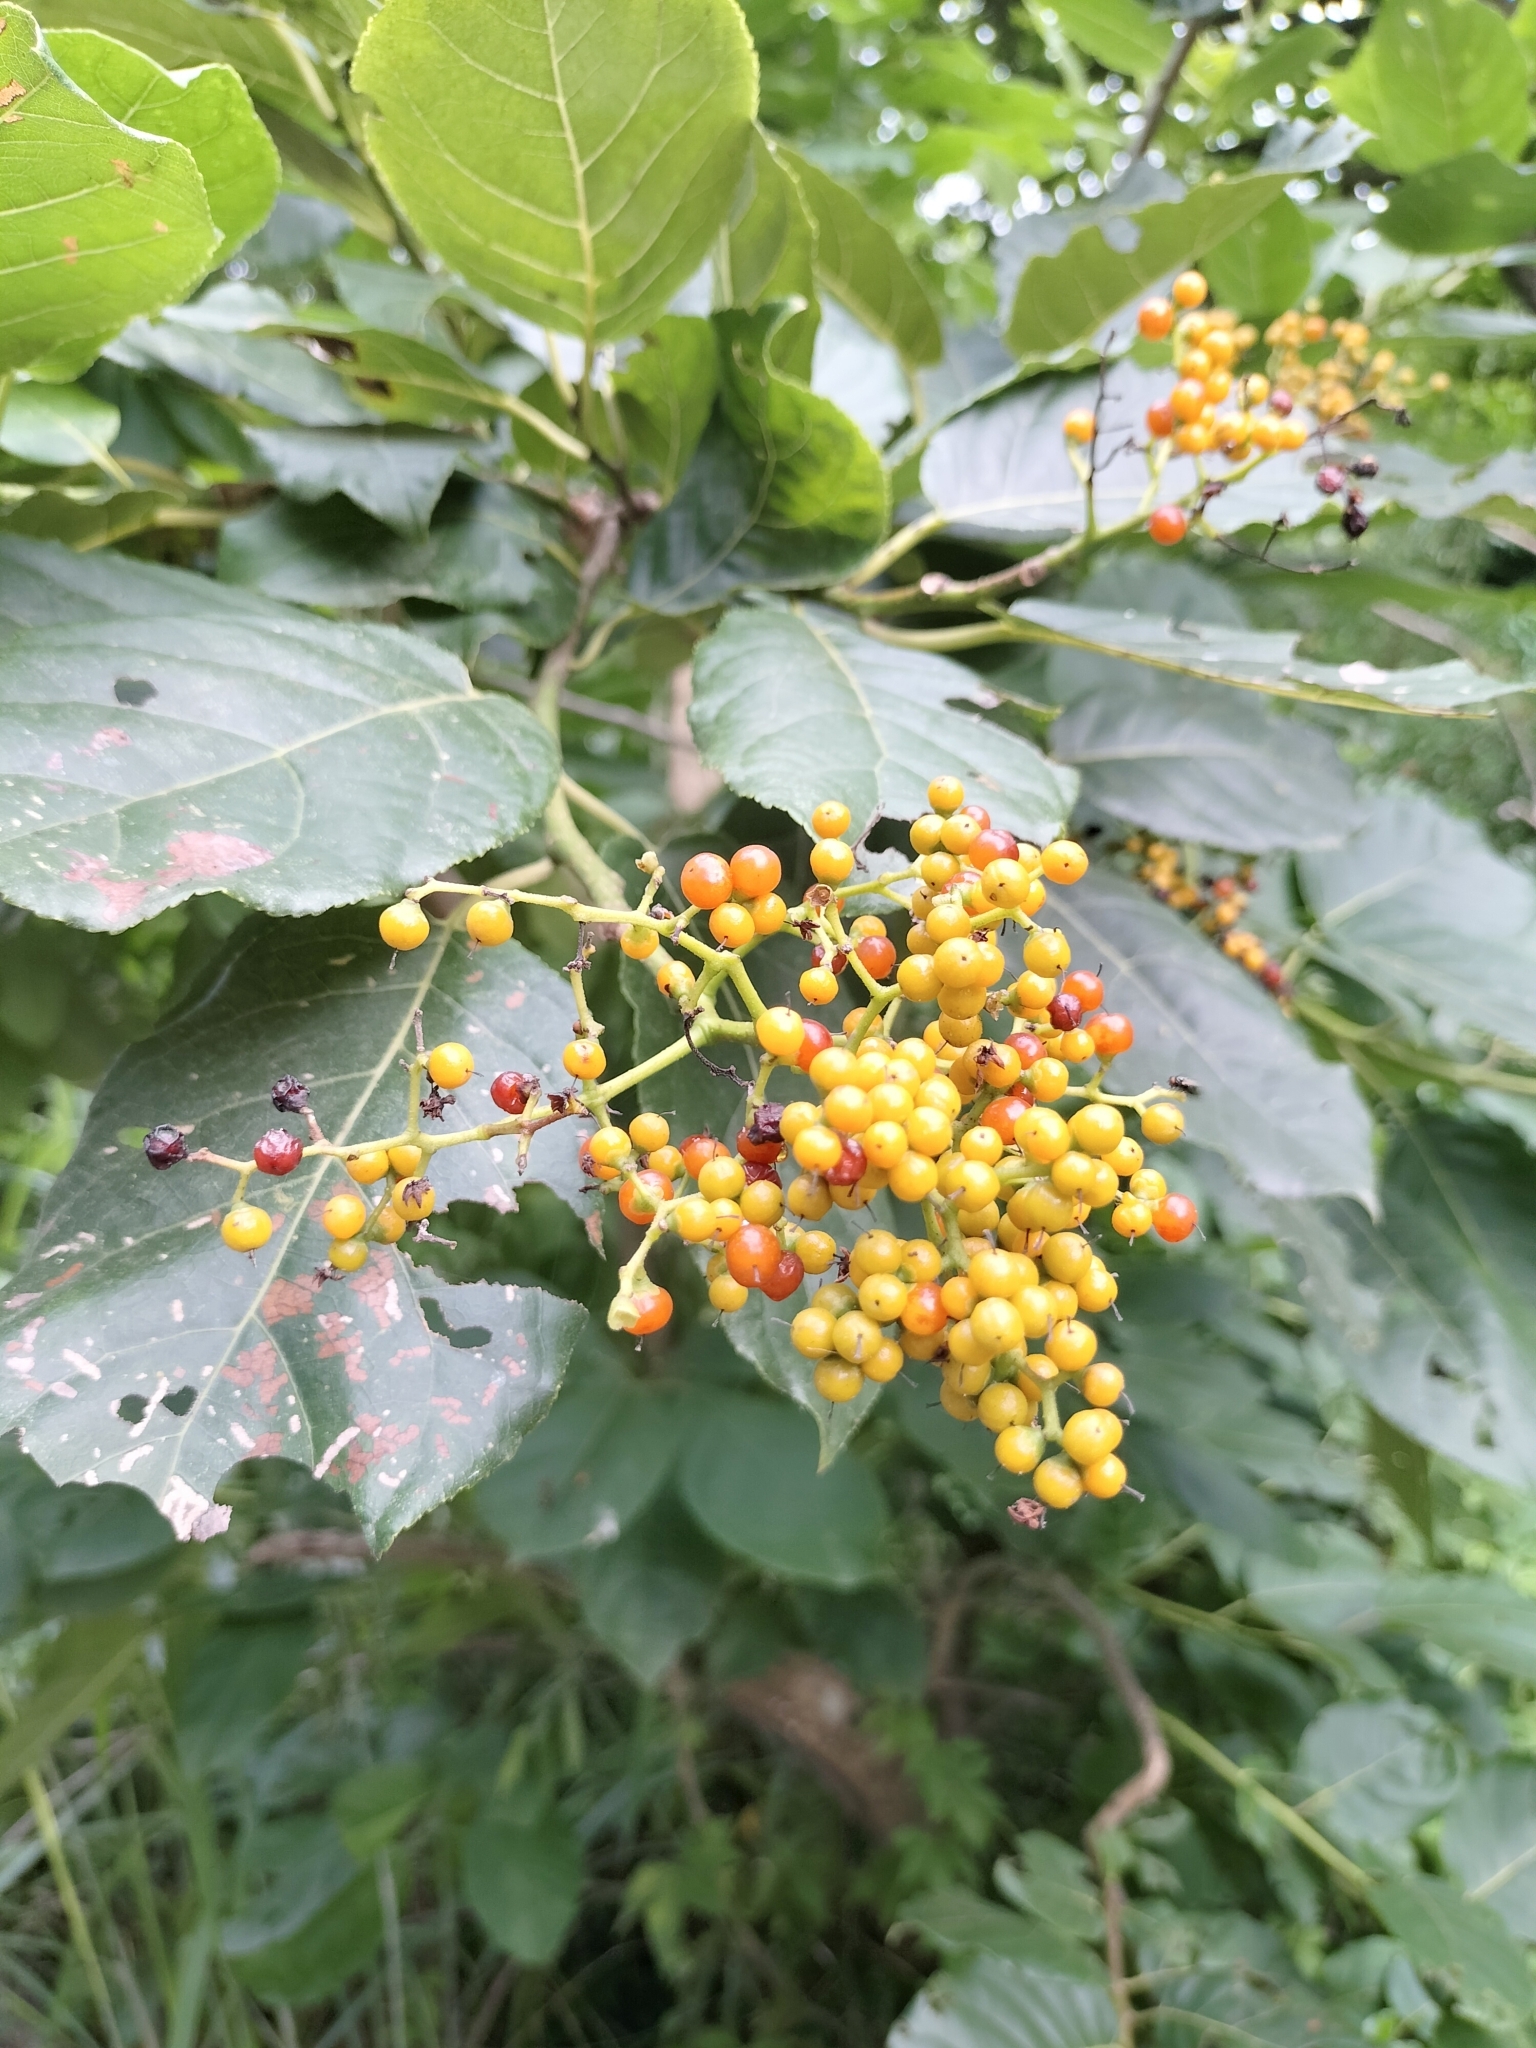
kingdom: Plantae
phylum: Tracheophyta
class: Magnoliopsida
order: Boraginales
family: Ehretiaceae
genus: Ehretia
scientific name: Ehretia acuminata
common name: Kodo wood
